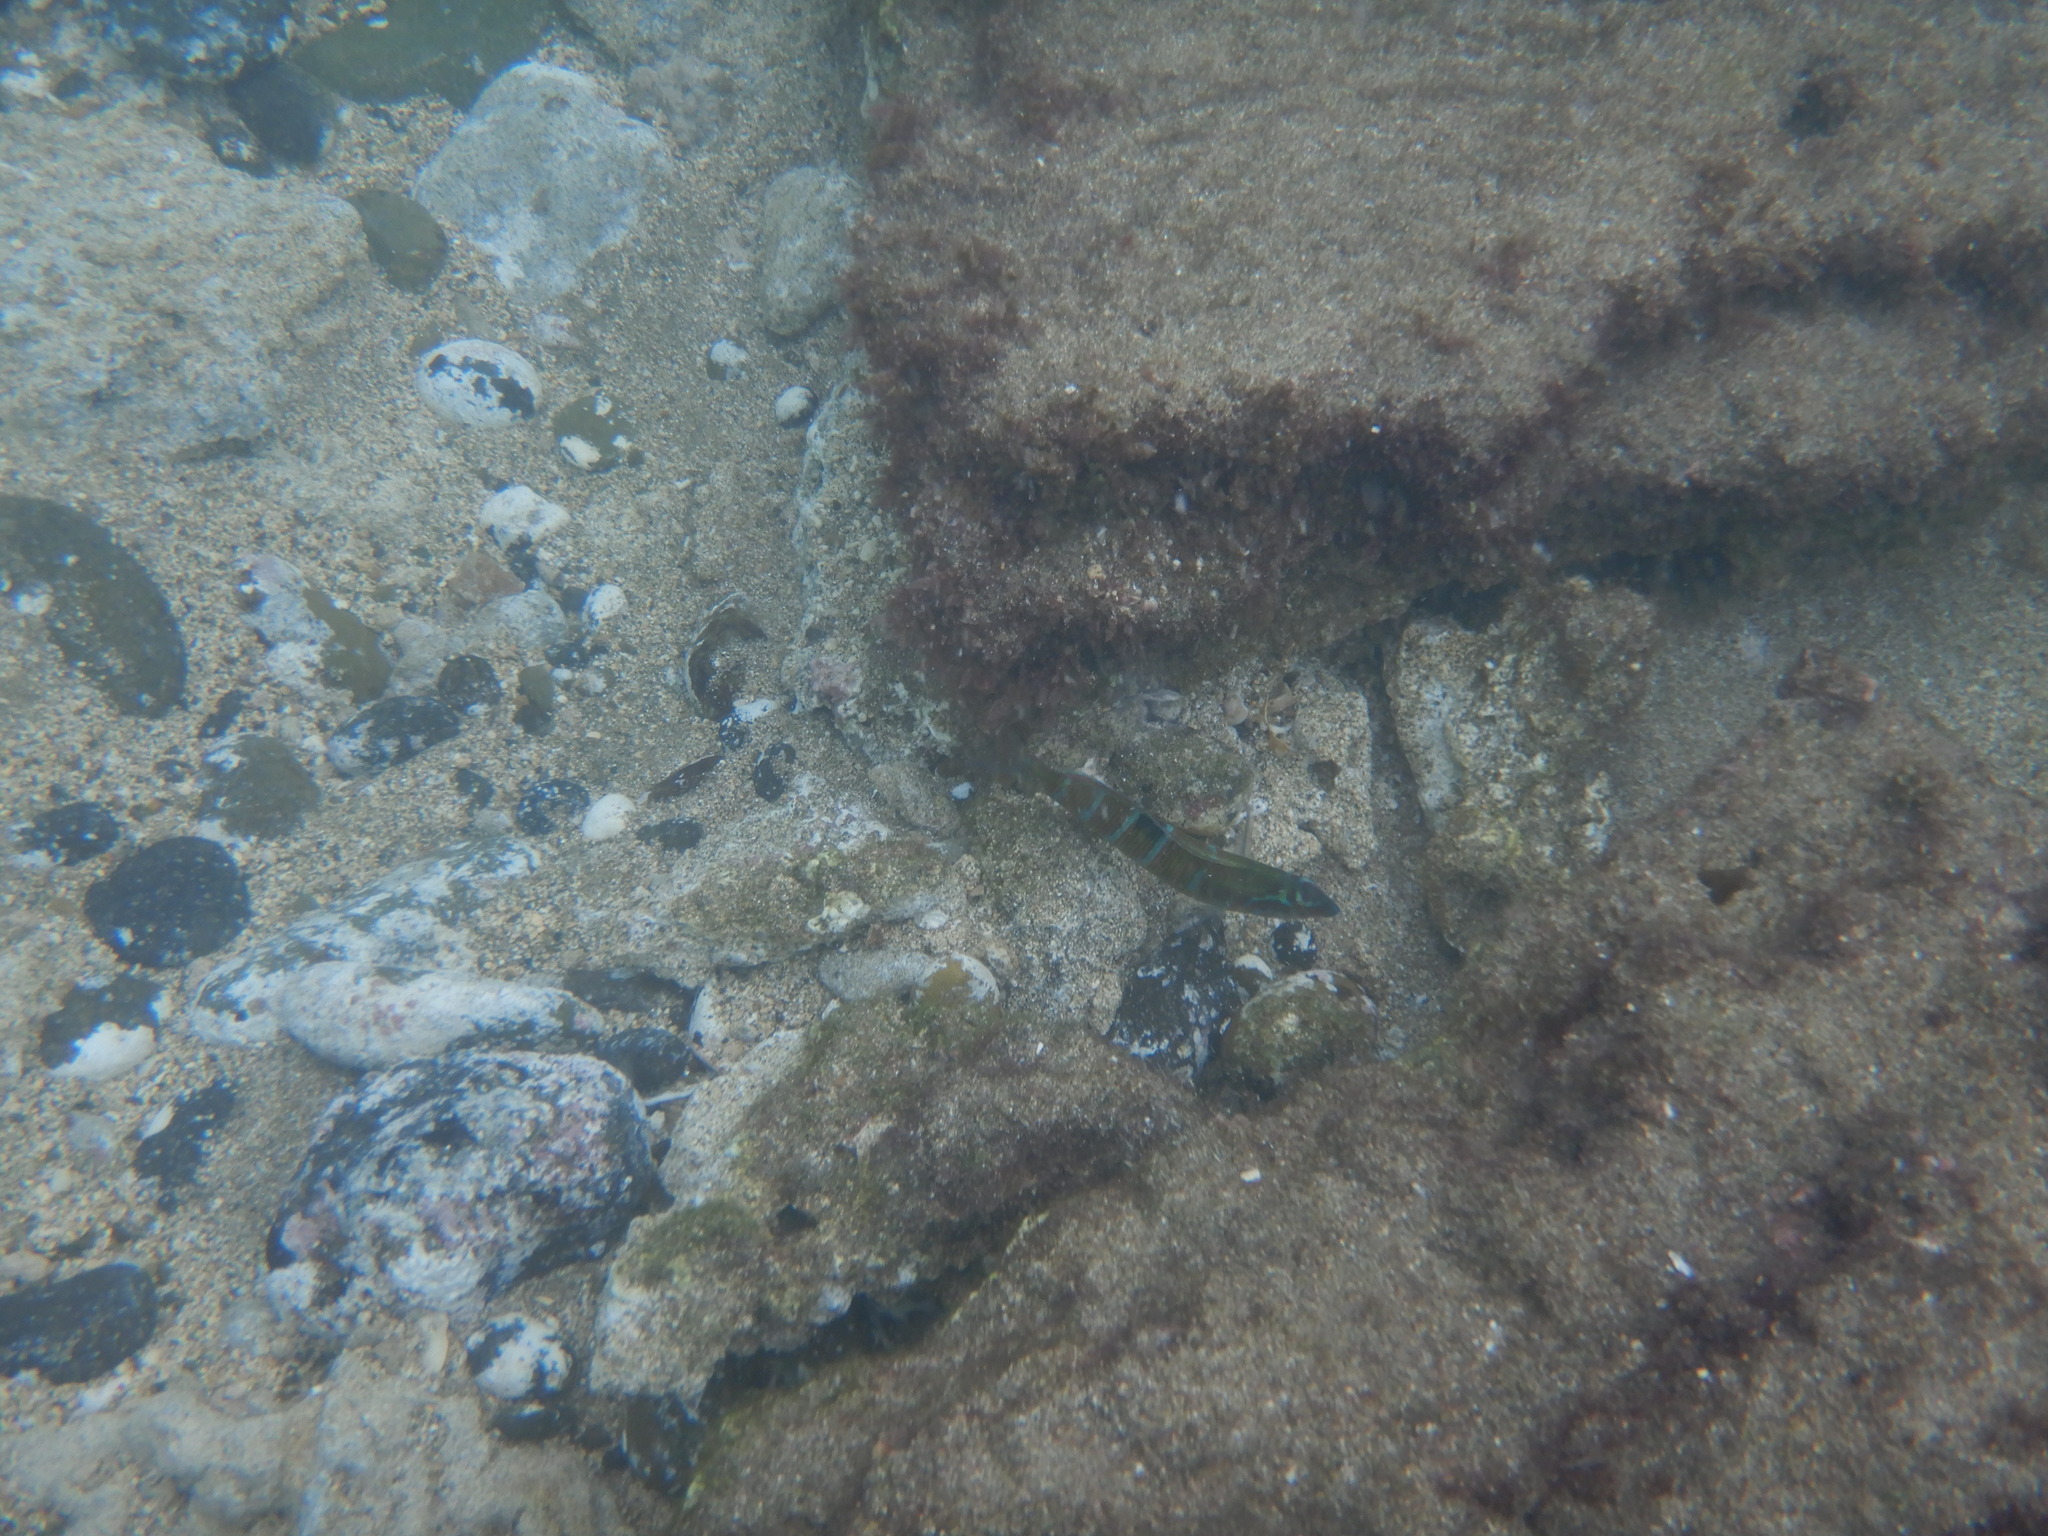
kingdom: Animalia
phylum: Chordata
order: Perciformes
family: Labridae
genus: Thalassoma
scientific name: Thalassoma pavo
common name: Ornate wrasse
